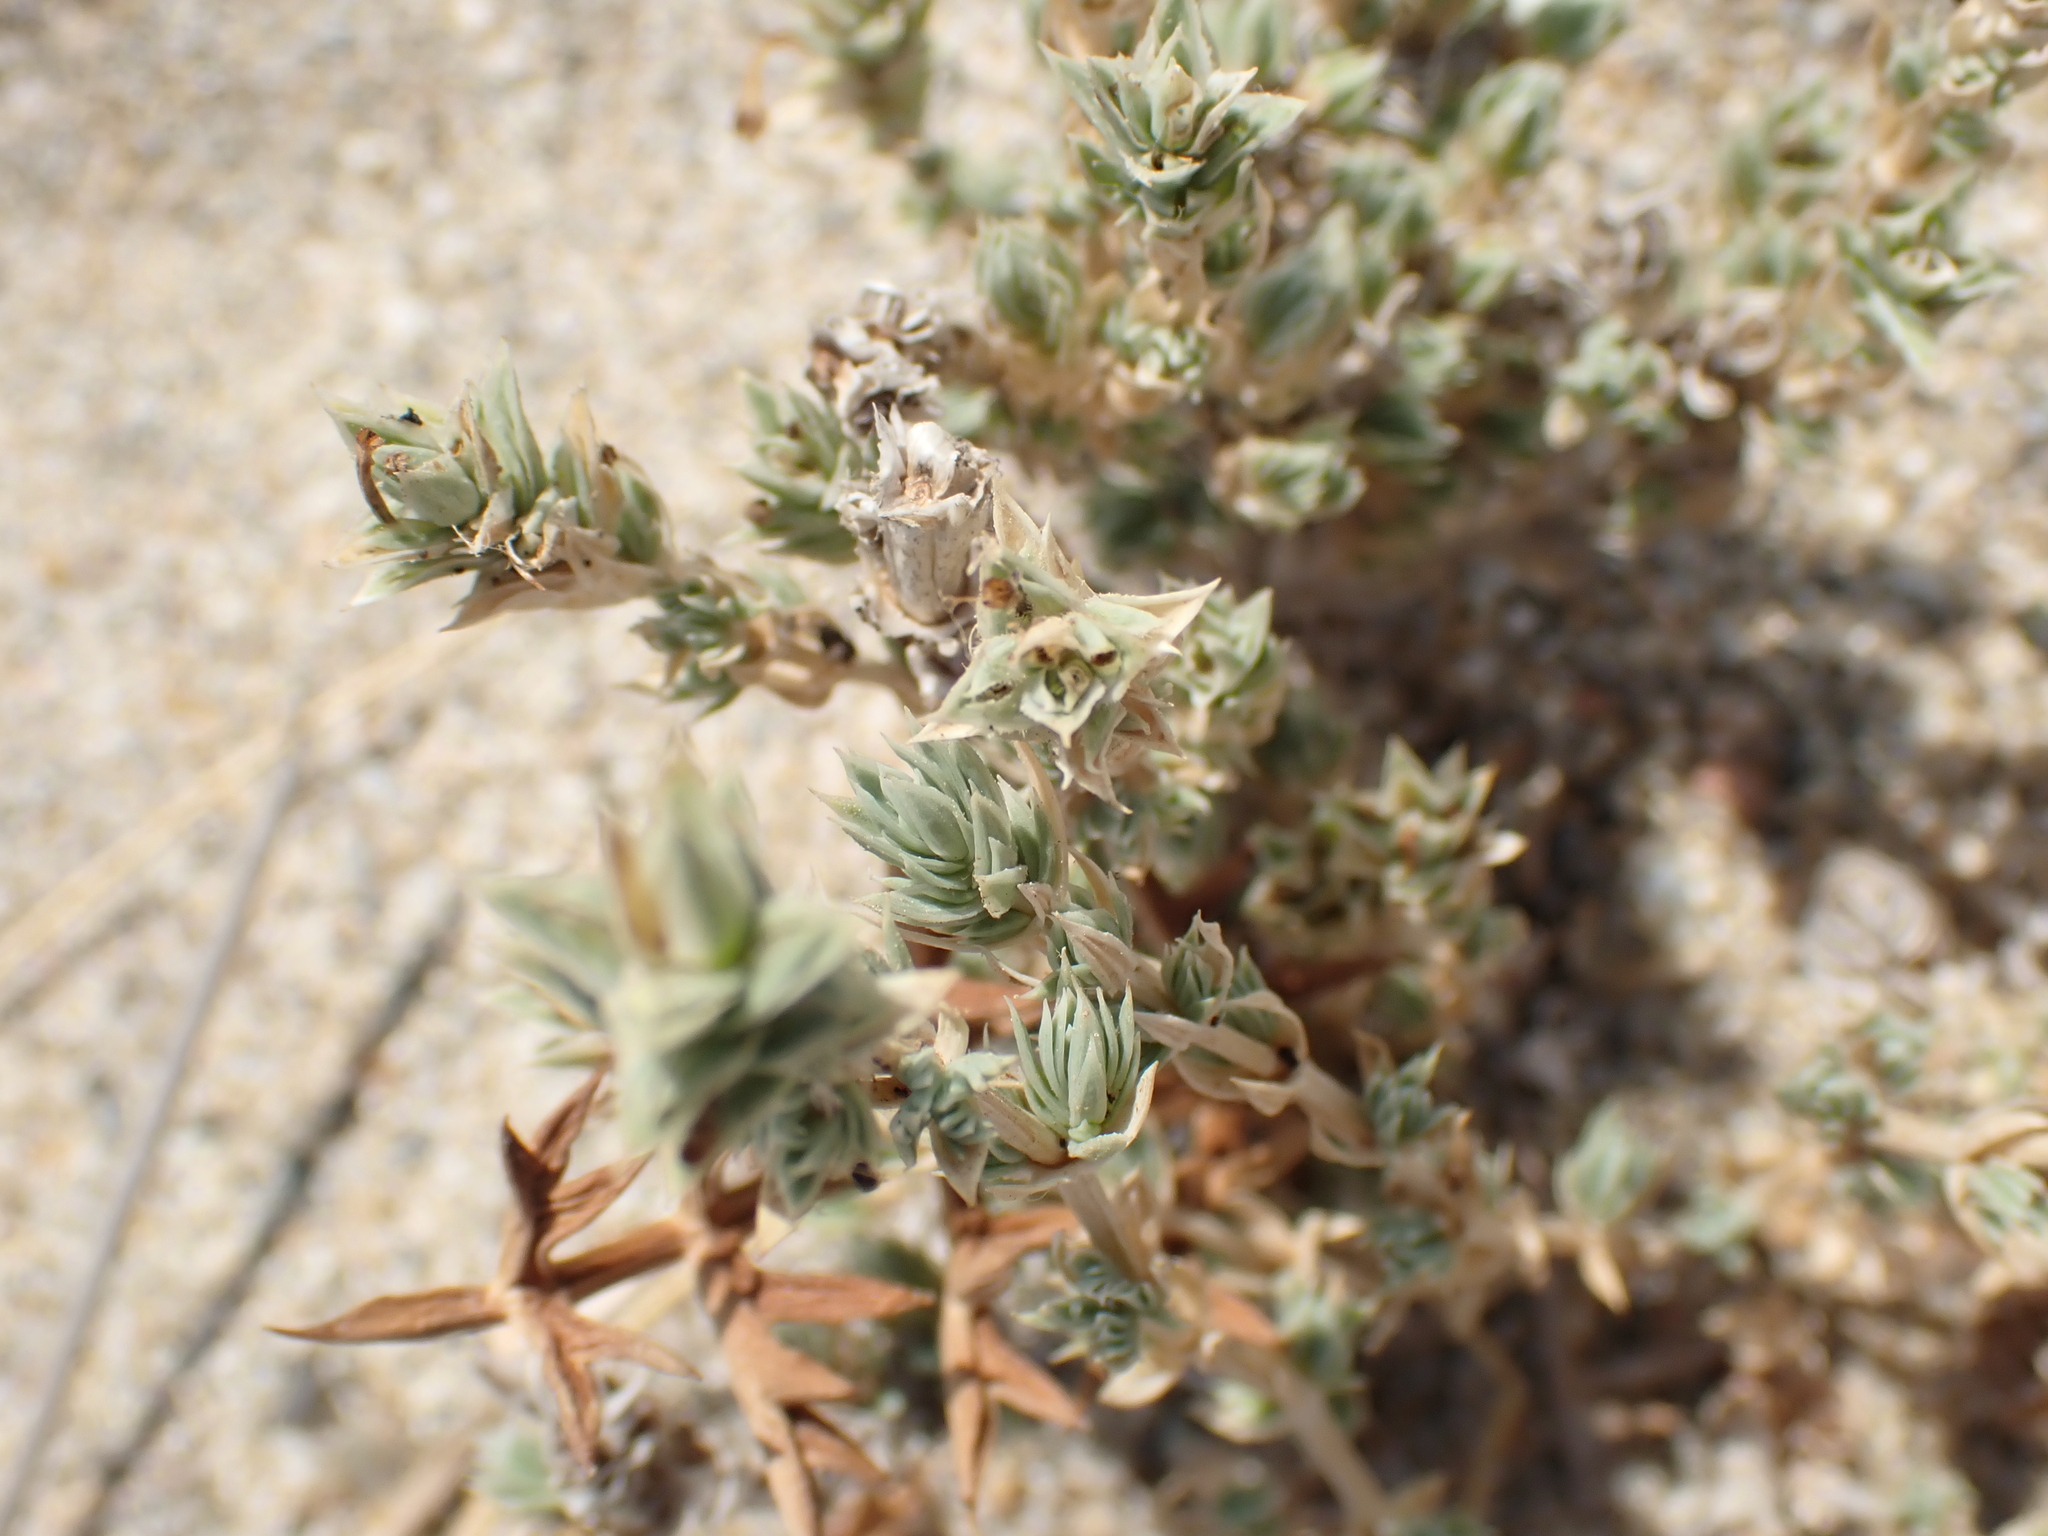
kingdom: Plantae
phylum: Tracheophyta
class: Magnoliopsida
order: Gentianales
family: Rubiaceae
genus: Crucianella
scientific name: Crucianella maritima
